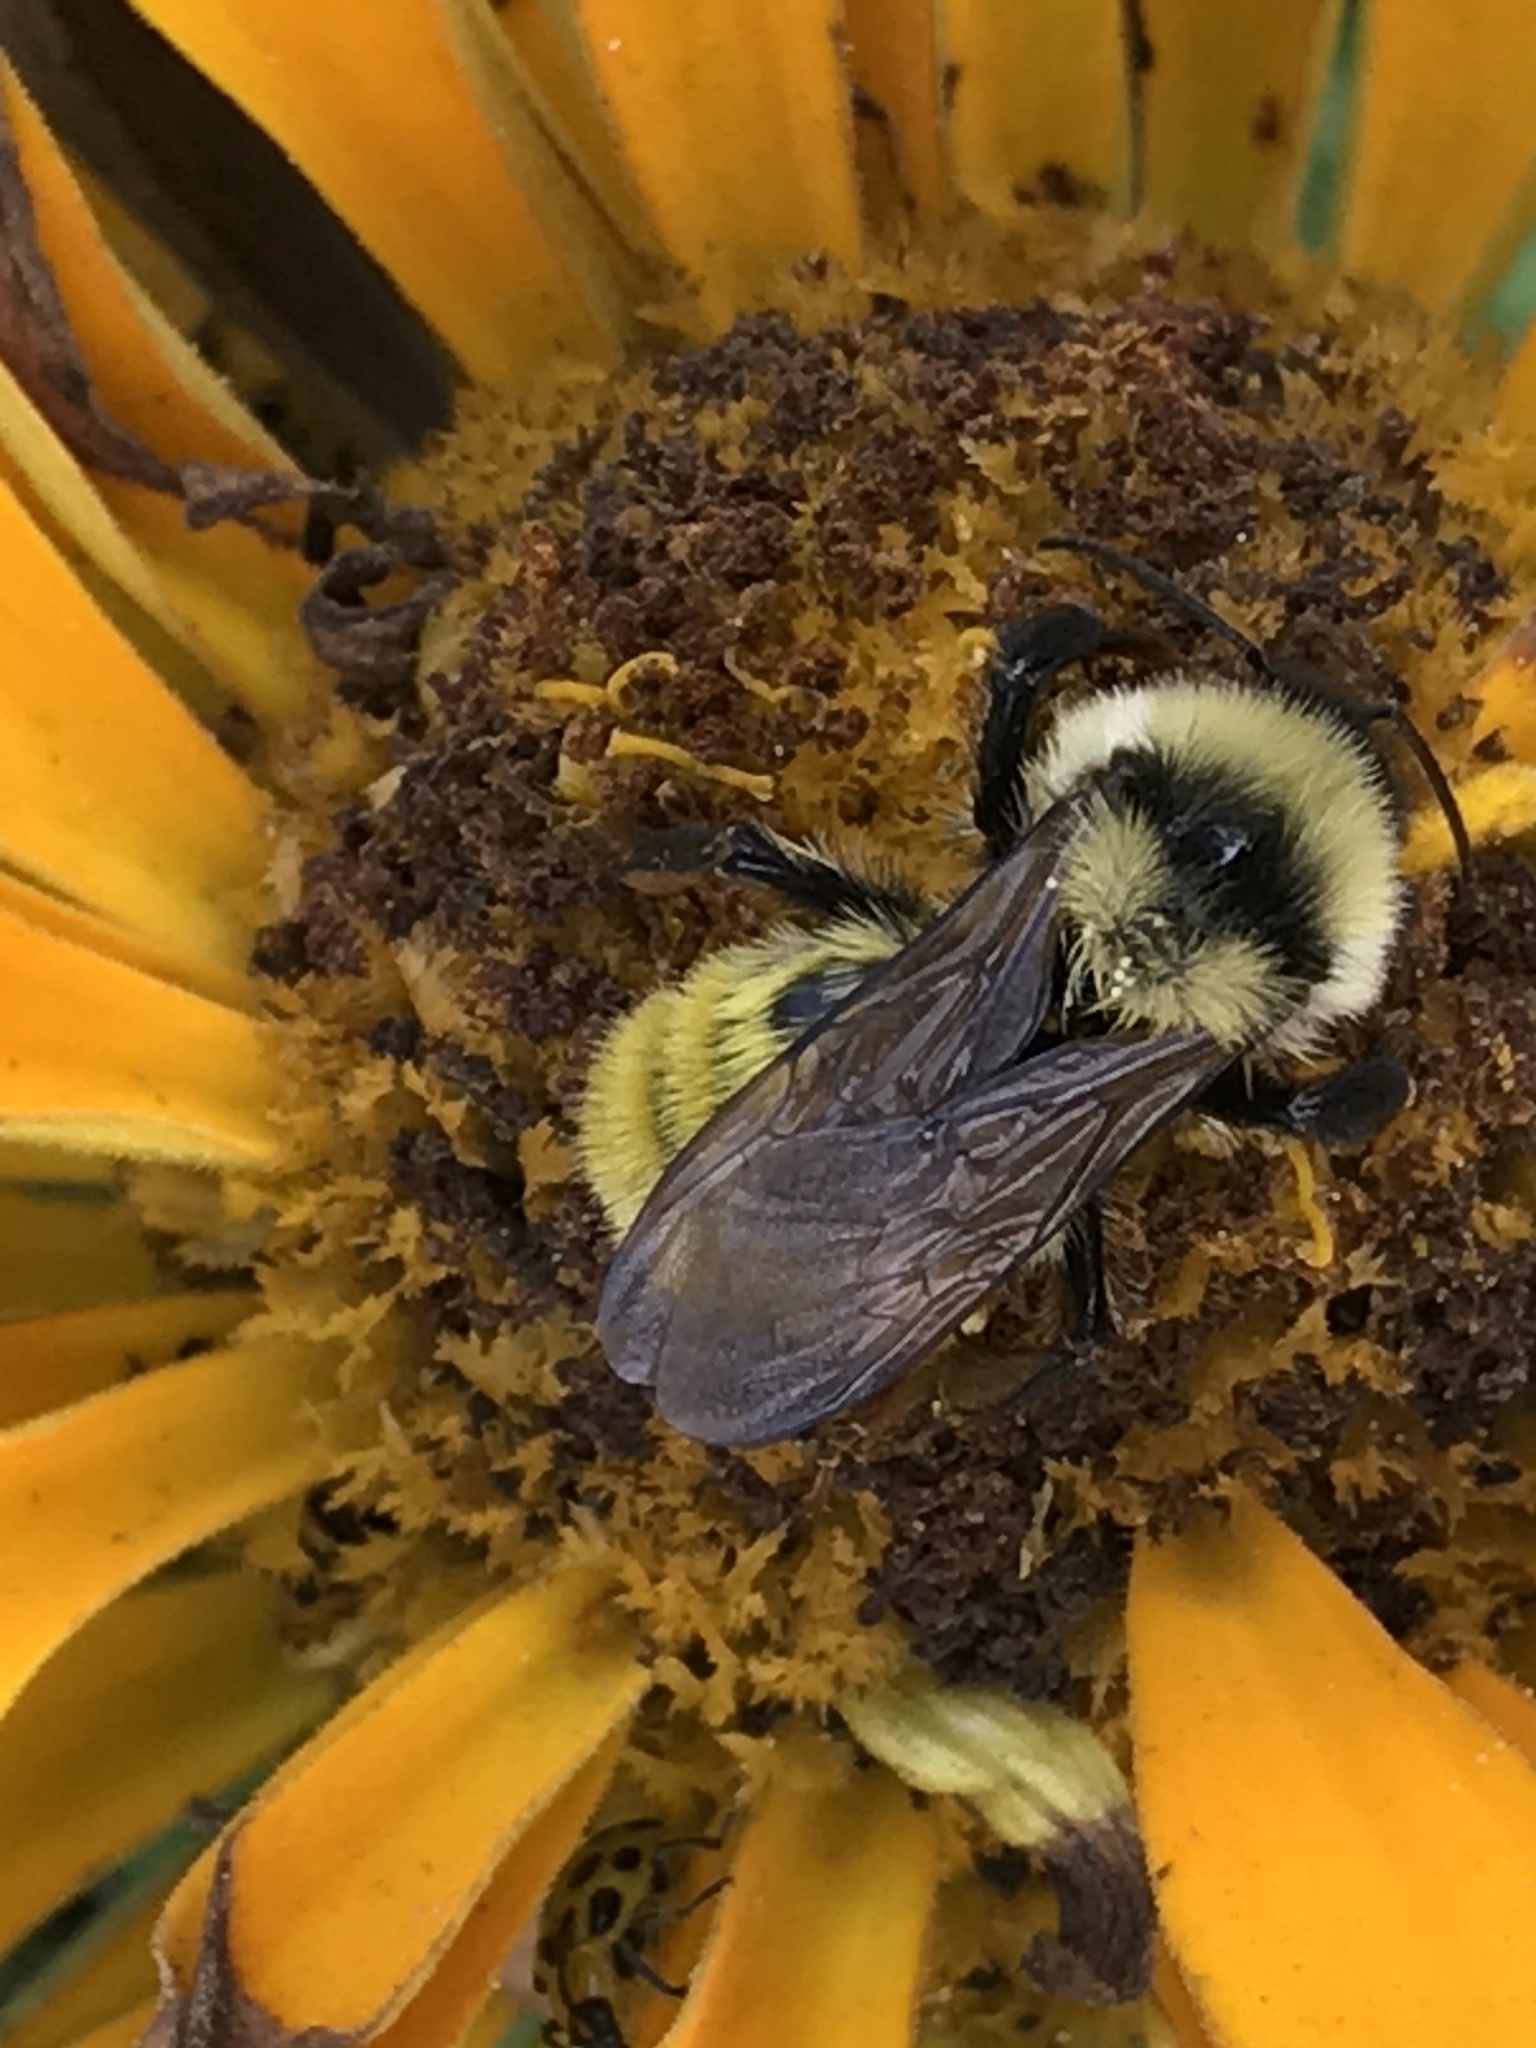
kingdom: Animalia
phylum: Arthropoda
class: Insecta
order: Hymenoptera
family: Apidae
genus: Bombus
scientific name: Bombus fervidus
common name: Yellow bumble bee
